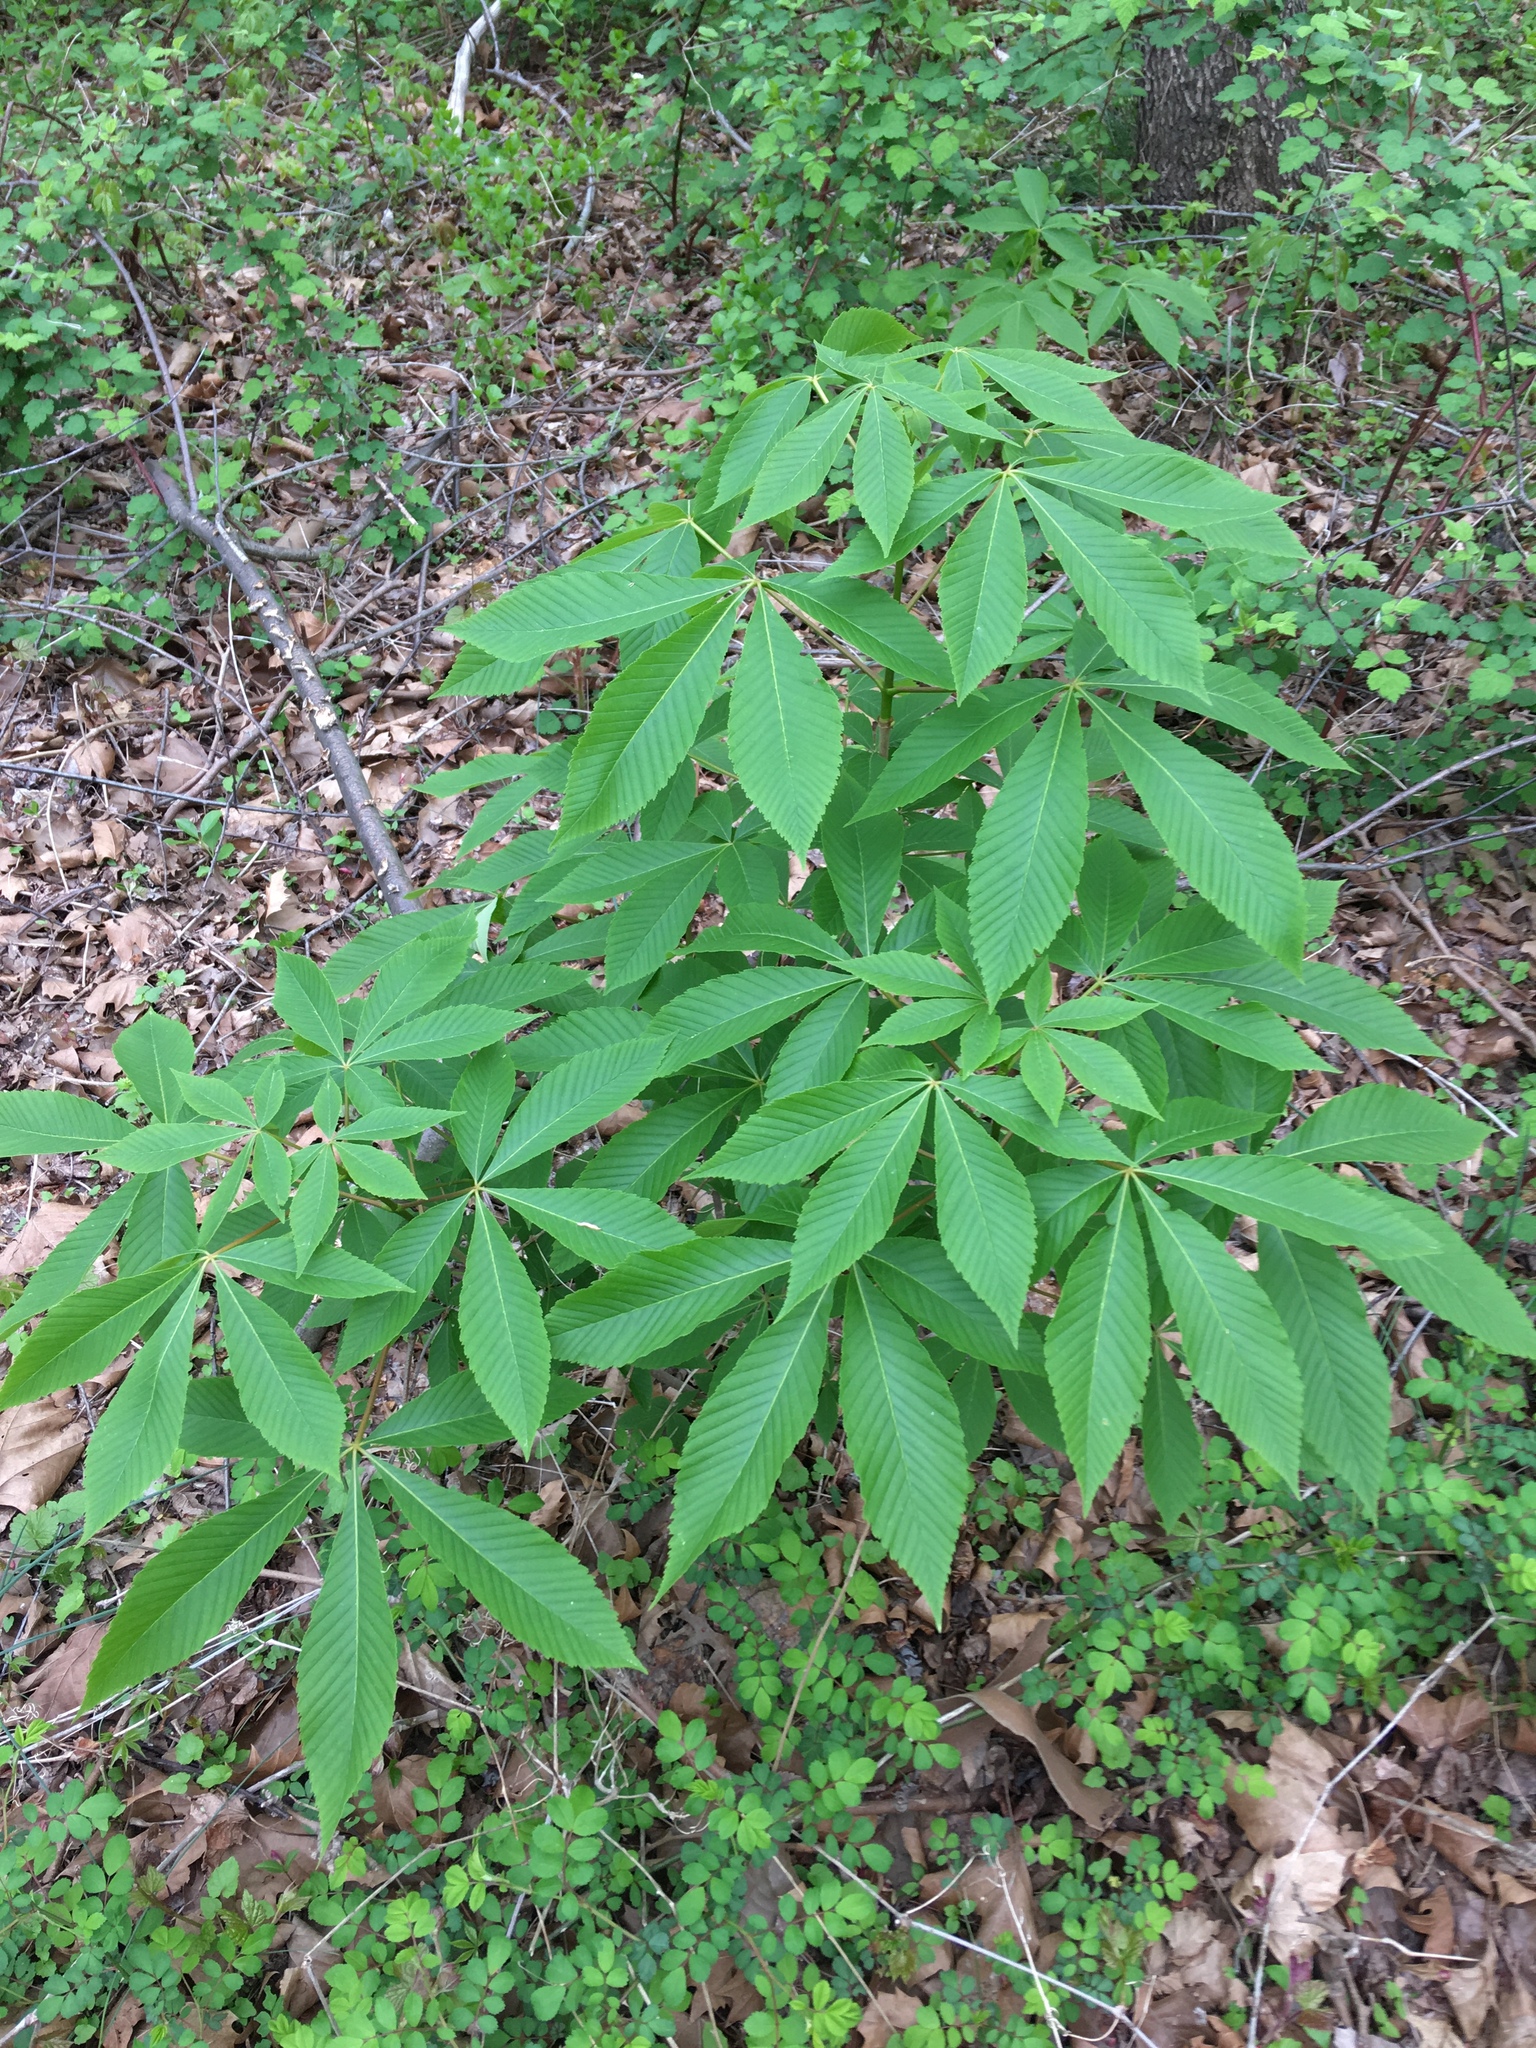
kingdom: Plantae
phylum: Tracheophyta
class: Magnoliopsida
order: Sapindales
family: Sapindaceae
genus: Aesculus
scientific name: Aesculus glabra
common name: Ohio buckeye
